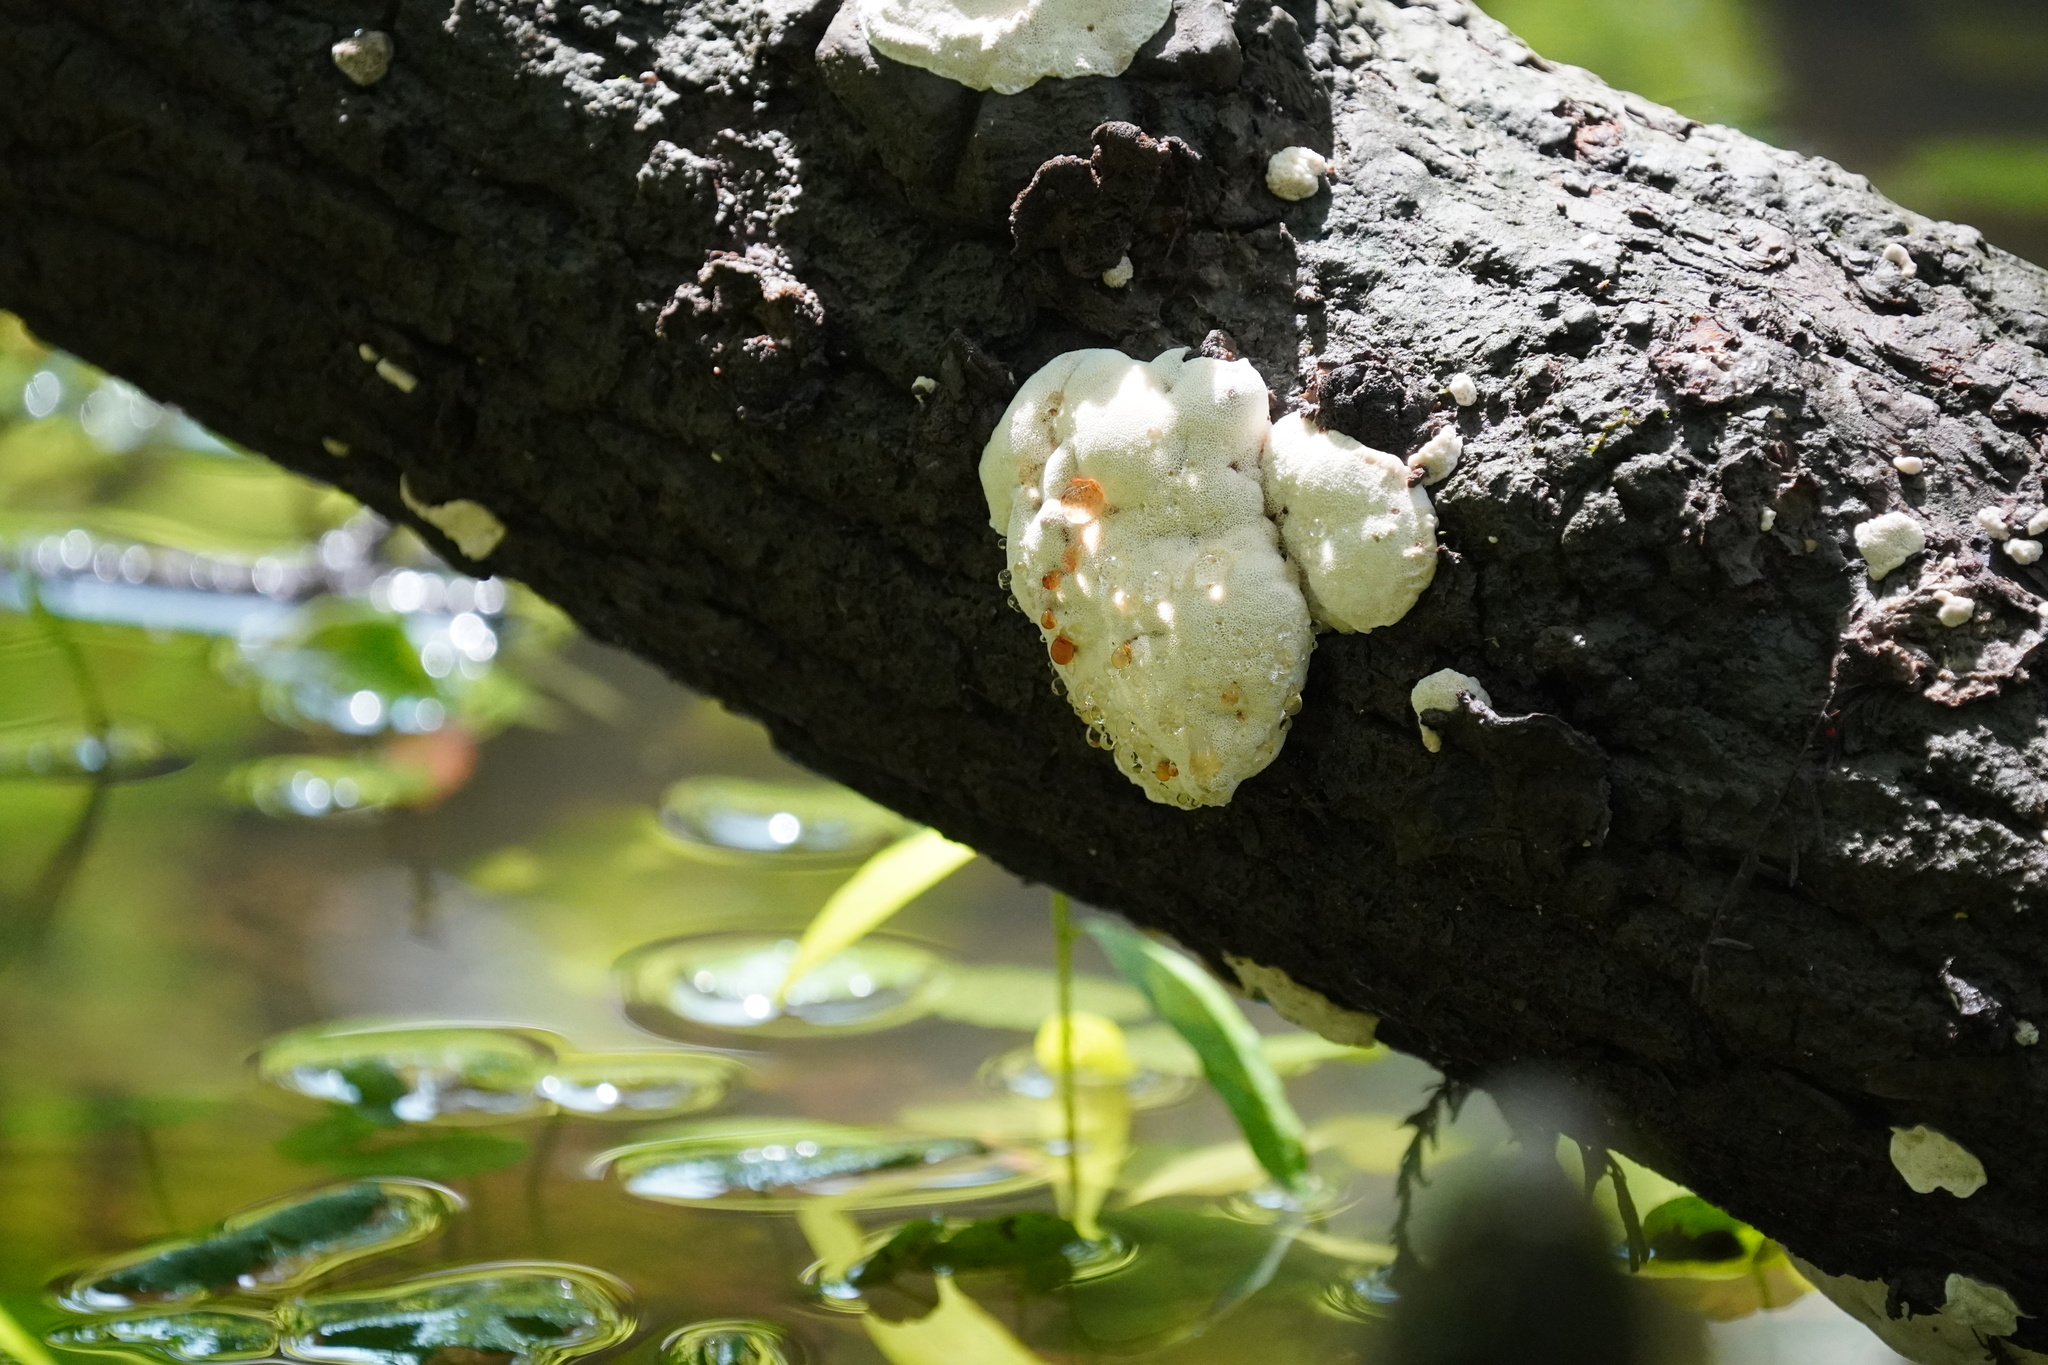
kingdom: Fungi
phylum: Basidiomycota
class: Agaricomycetes
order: Polyporales
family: Podoscyphaceae
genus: Abortiporus
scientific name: Abortiporus biennis
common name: Blushing rosette
